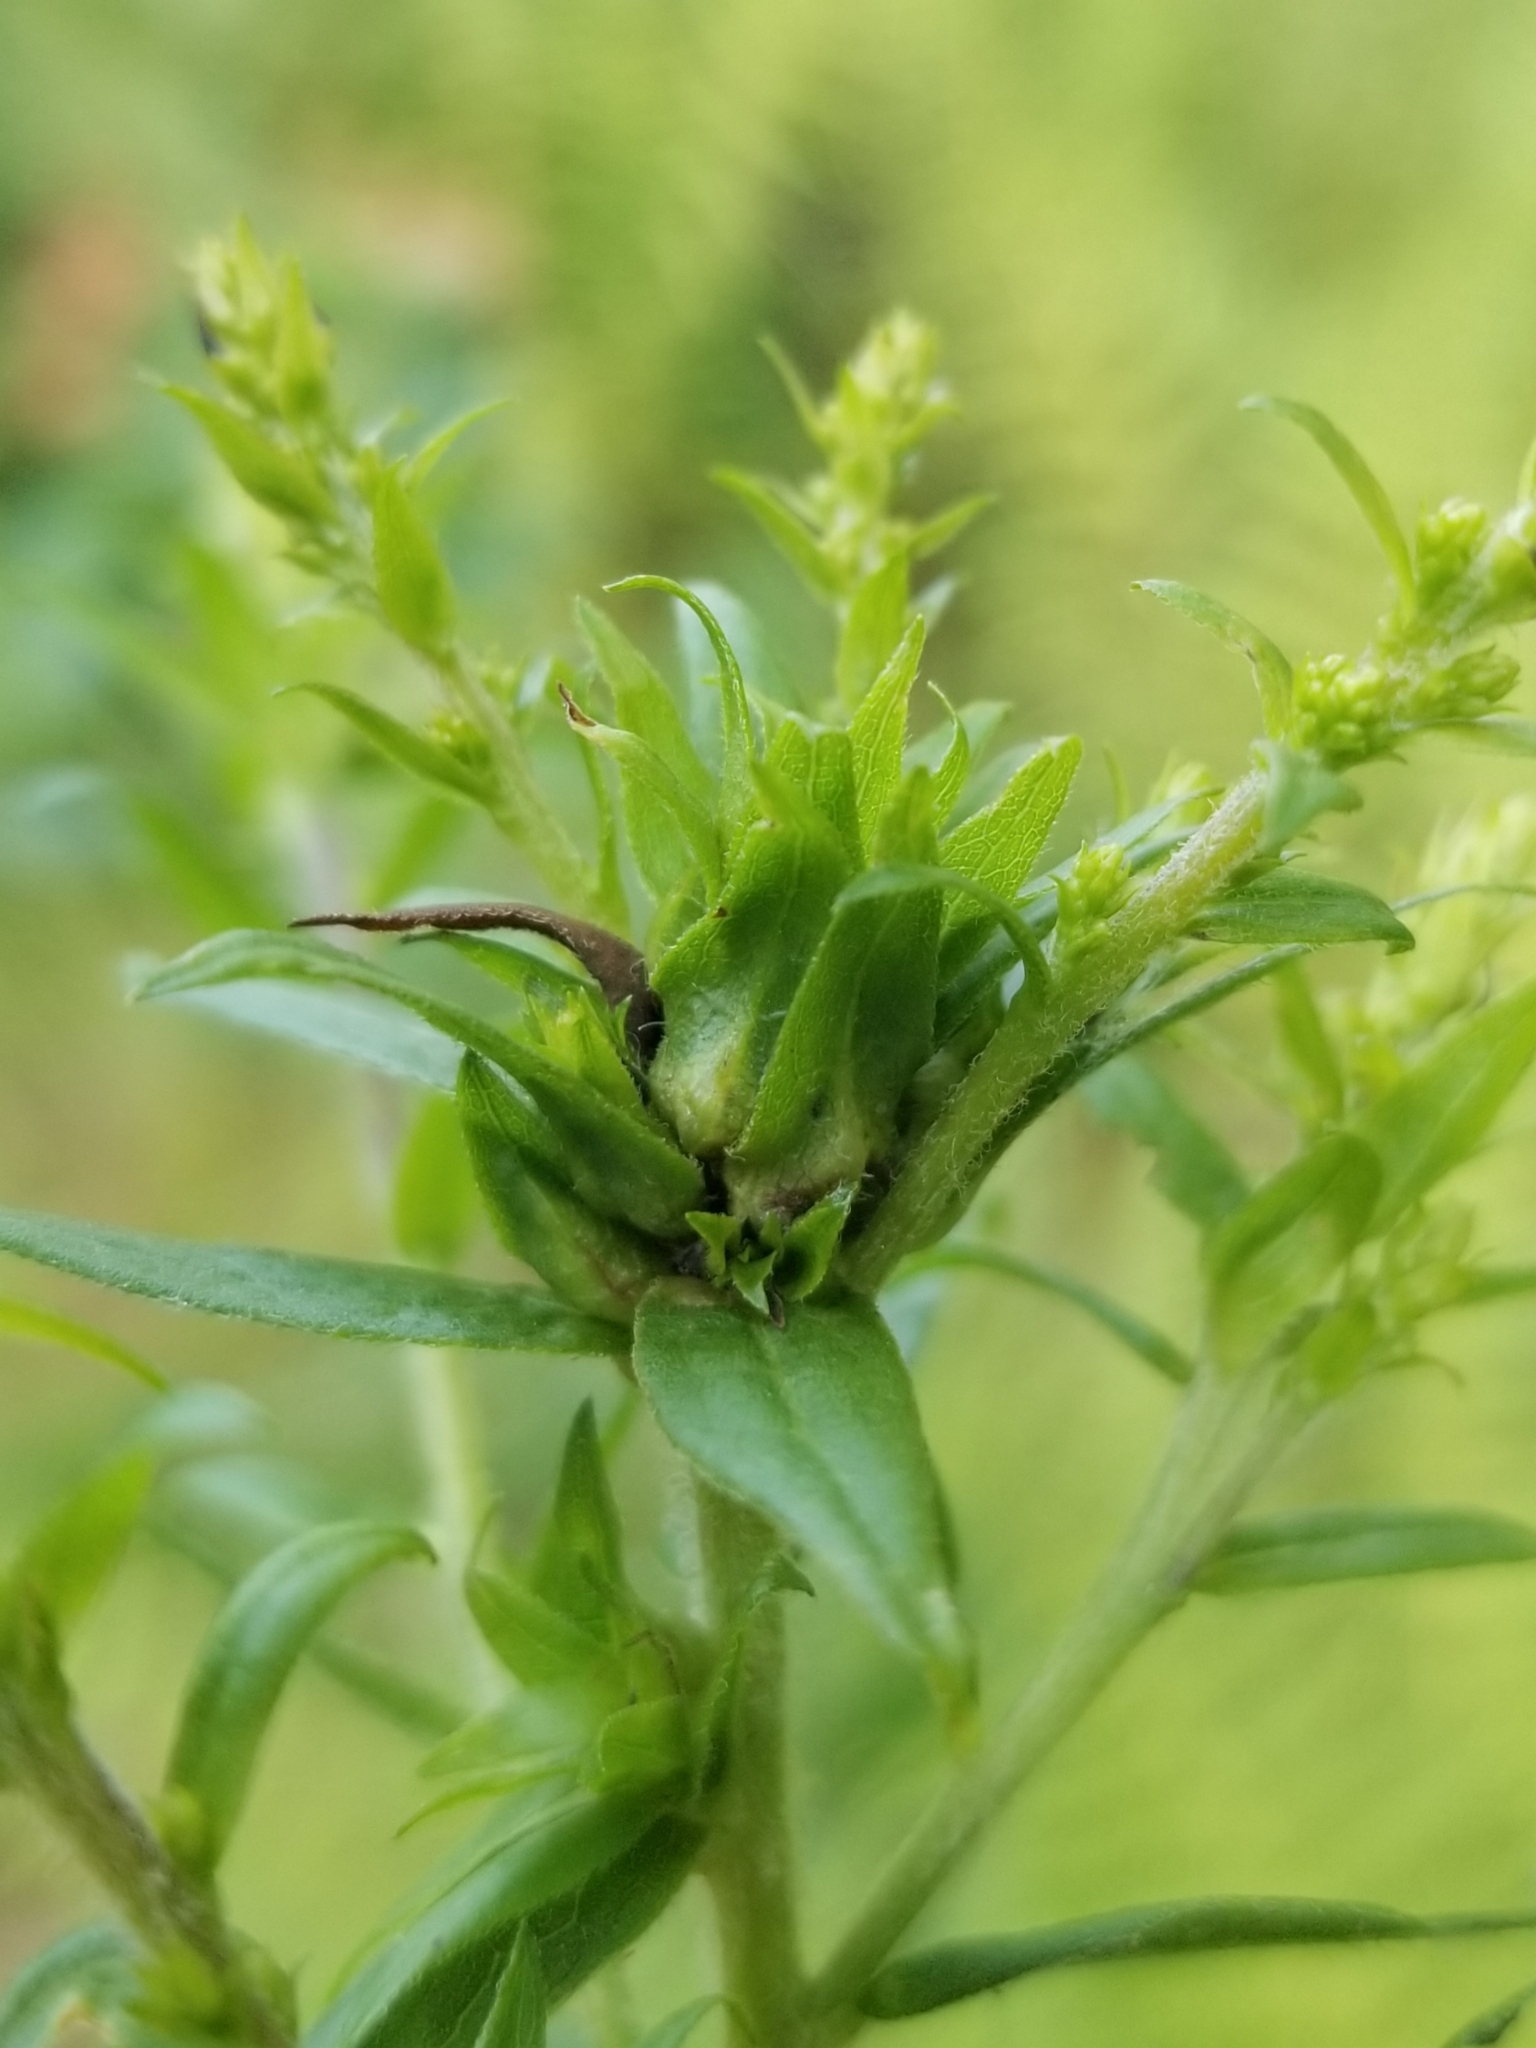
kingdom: Animalia
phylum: Arthropoda
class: Insecta
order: Diptera
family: Cecidomyiidae
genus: Dasineura
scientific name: Dasineura folliculi
